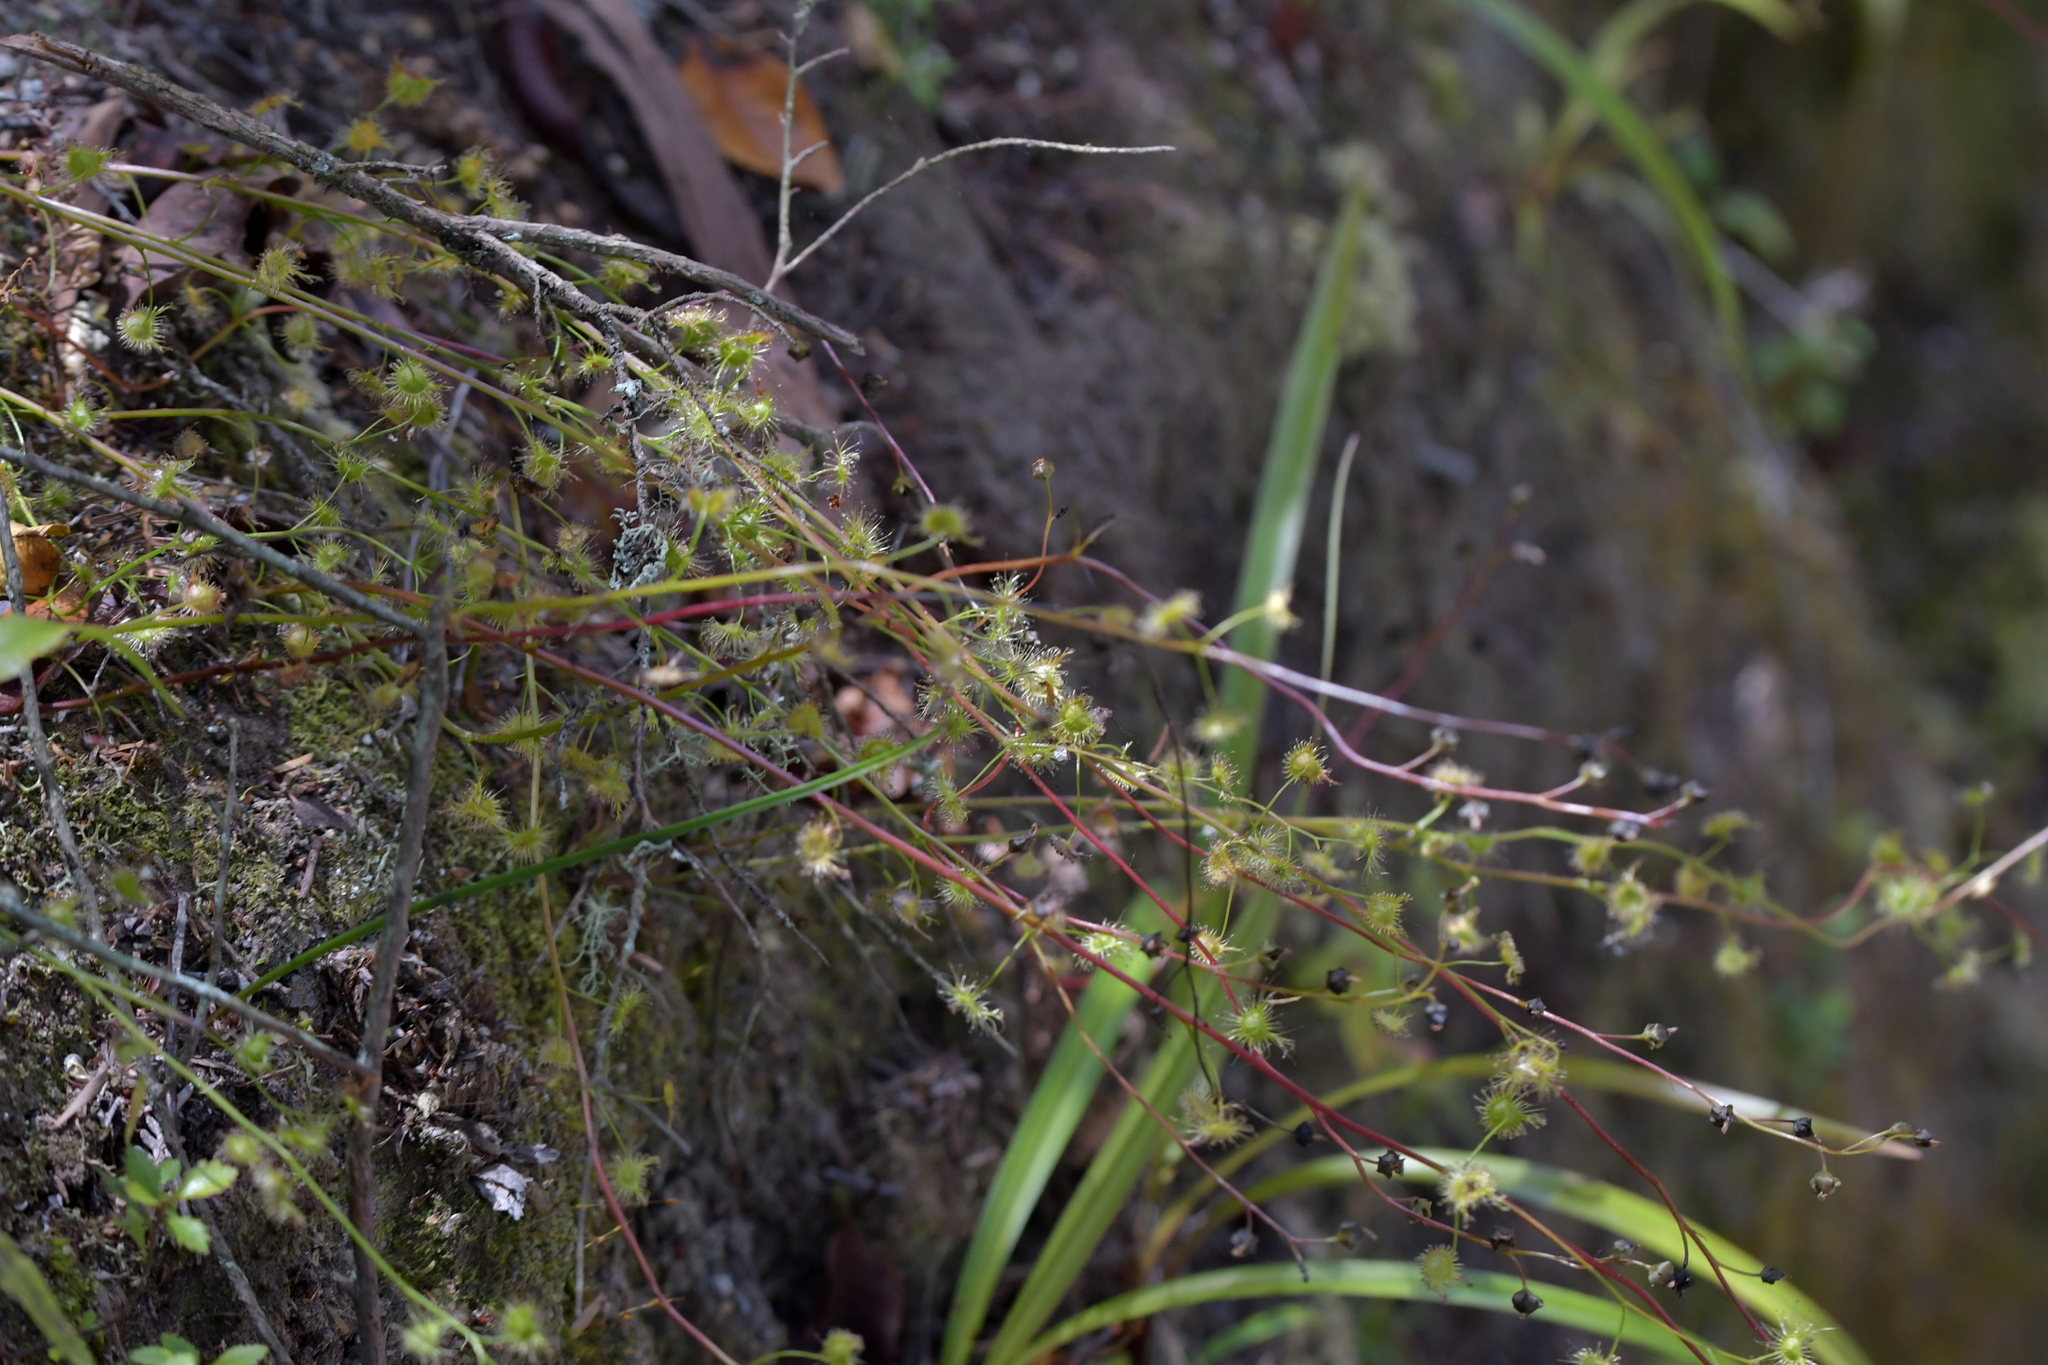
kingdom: Plantae
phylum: Tracheophyta
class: Magnoliopsida
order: Caryophyllales
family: Droseraceae
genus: Drosera
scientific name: Drosera peltata
